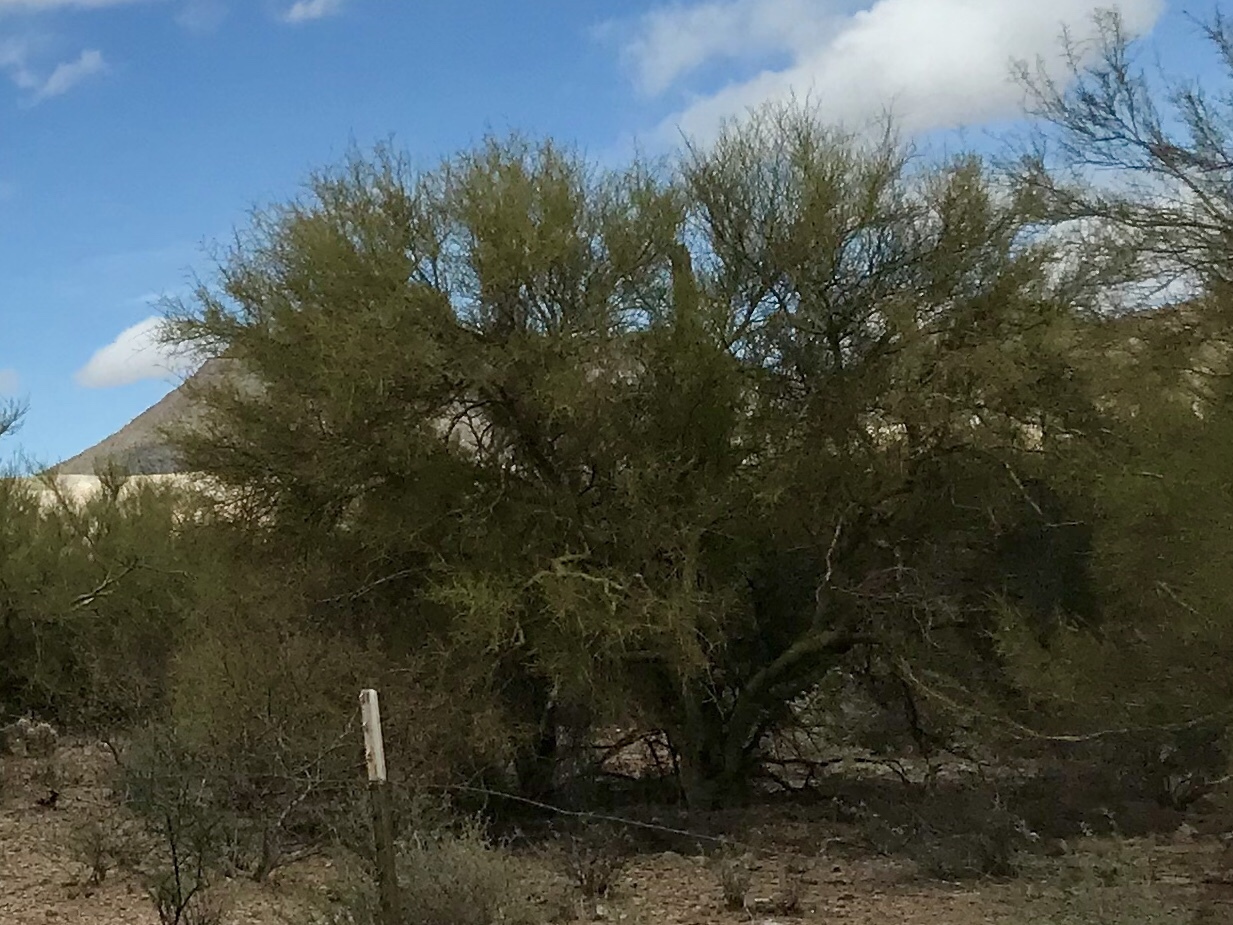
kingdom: Plantae
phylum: Tracheophyta
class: Magnoliopsida
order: Fabales
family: Fabaceae
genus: Parkinsonia
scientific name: Parkinsonia microphylla
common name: Yellow paloverde
